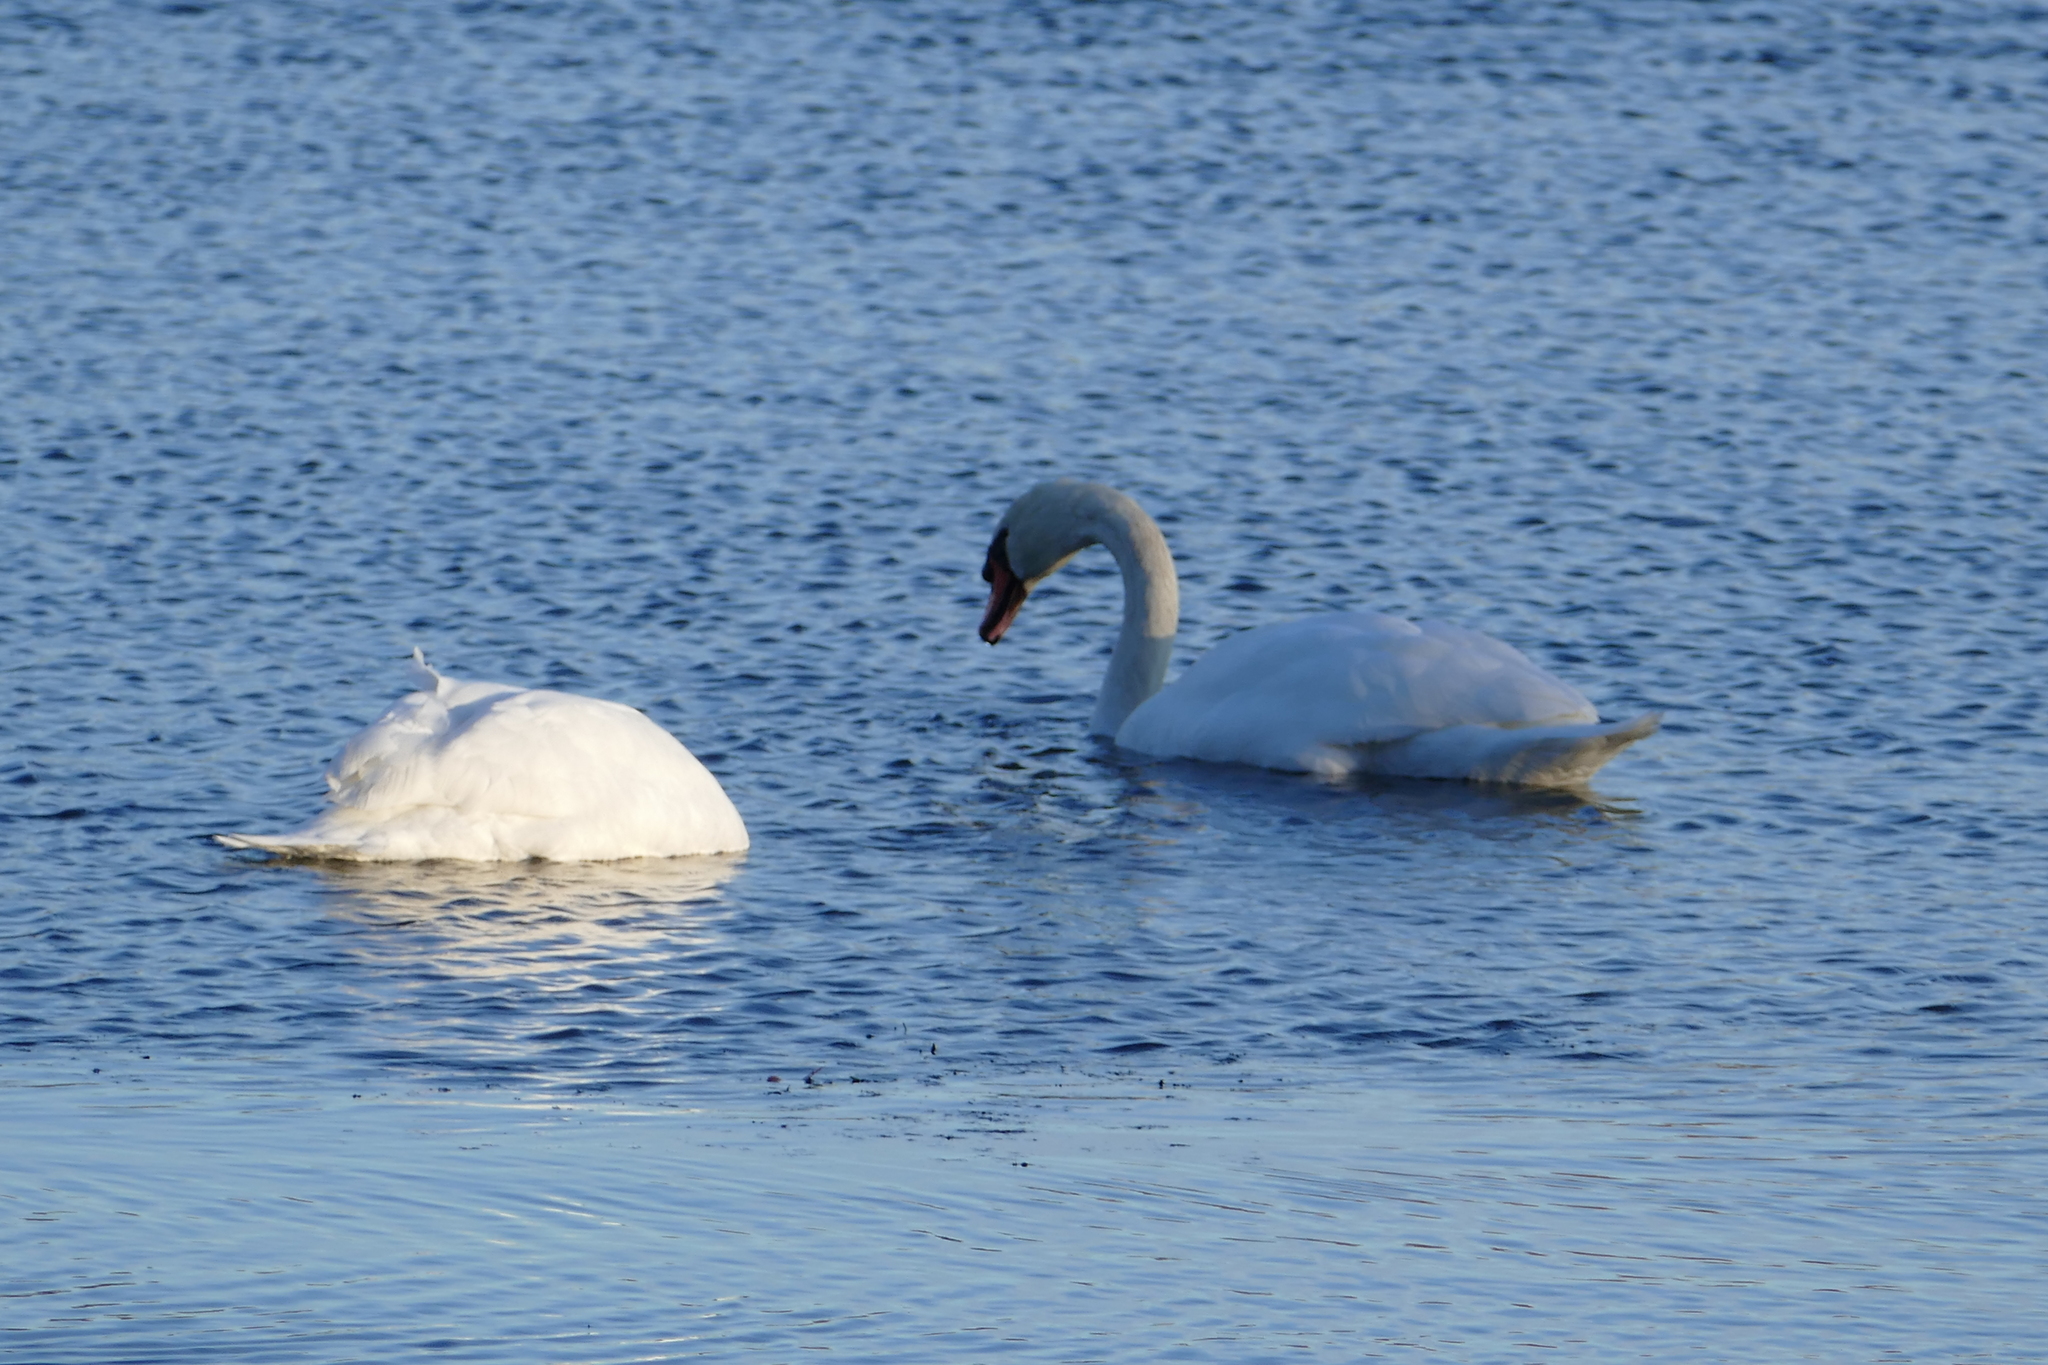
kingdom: Animalia
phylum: Chordata
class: Aves
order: Anseriformes
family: Anatidae
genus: Cygnus
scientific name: Cygnus olor
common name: Mute swan
